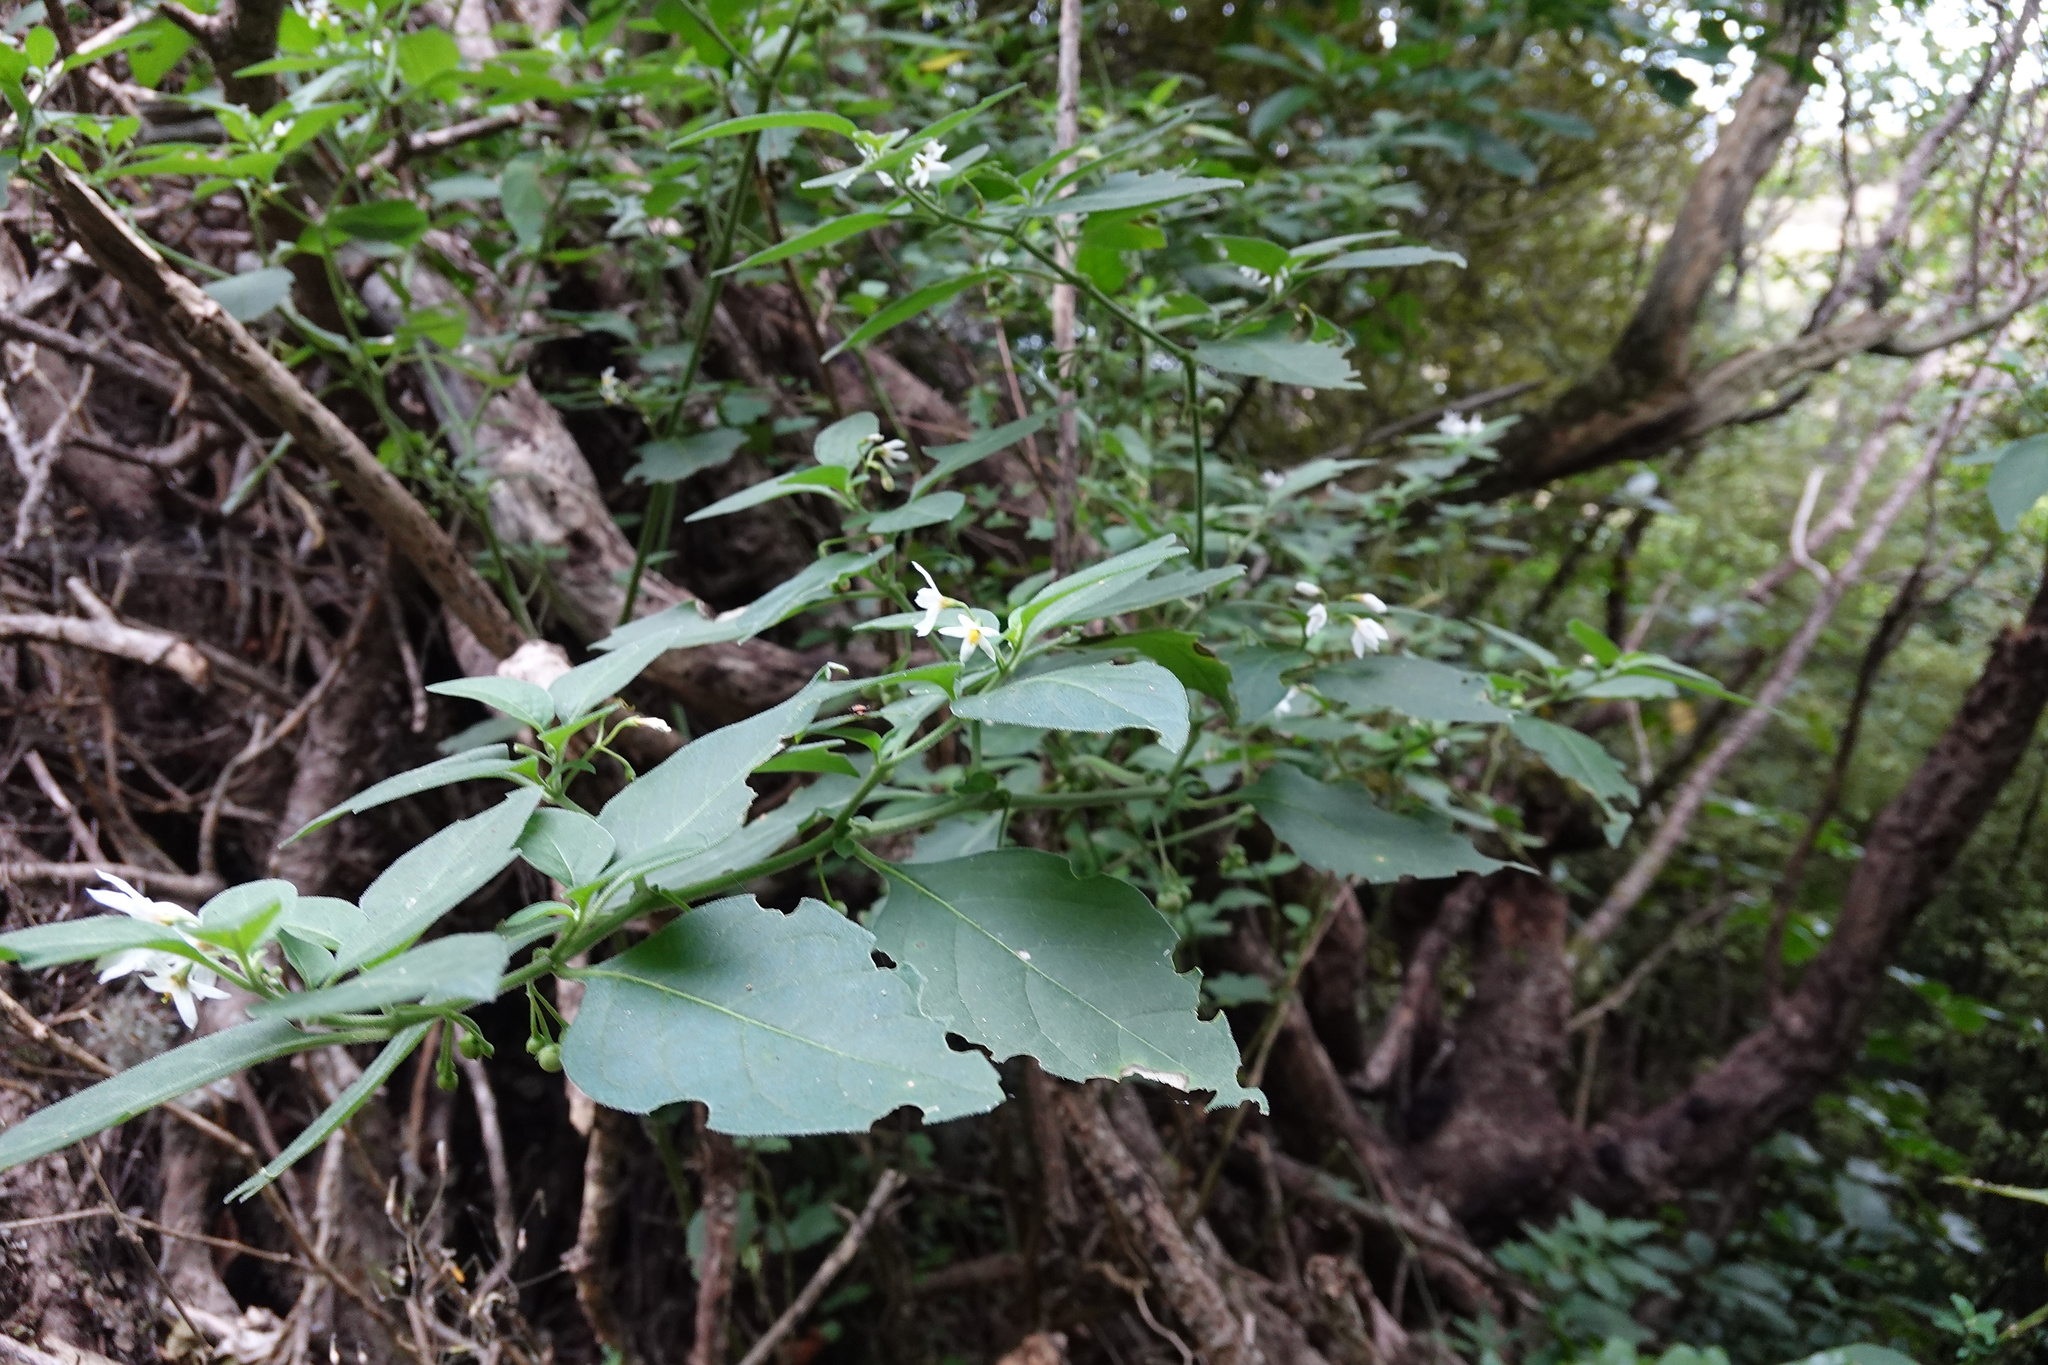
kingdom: Plantae
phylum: Tracheophyta
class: Magnoliopsida
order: Solanales
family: Solanaceae
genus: Solanum
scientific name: Solanum chenopodioides
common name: Tall nightshade
